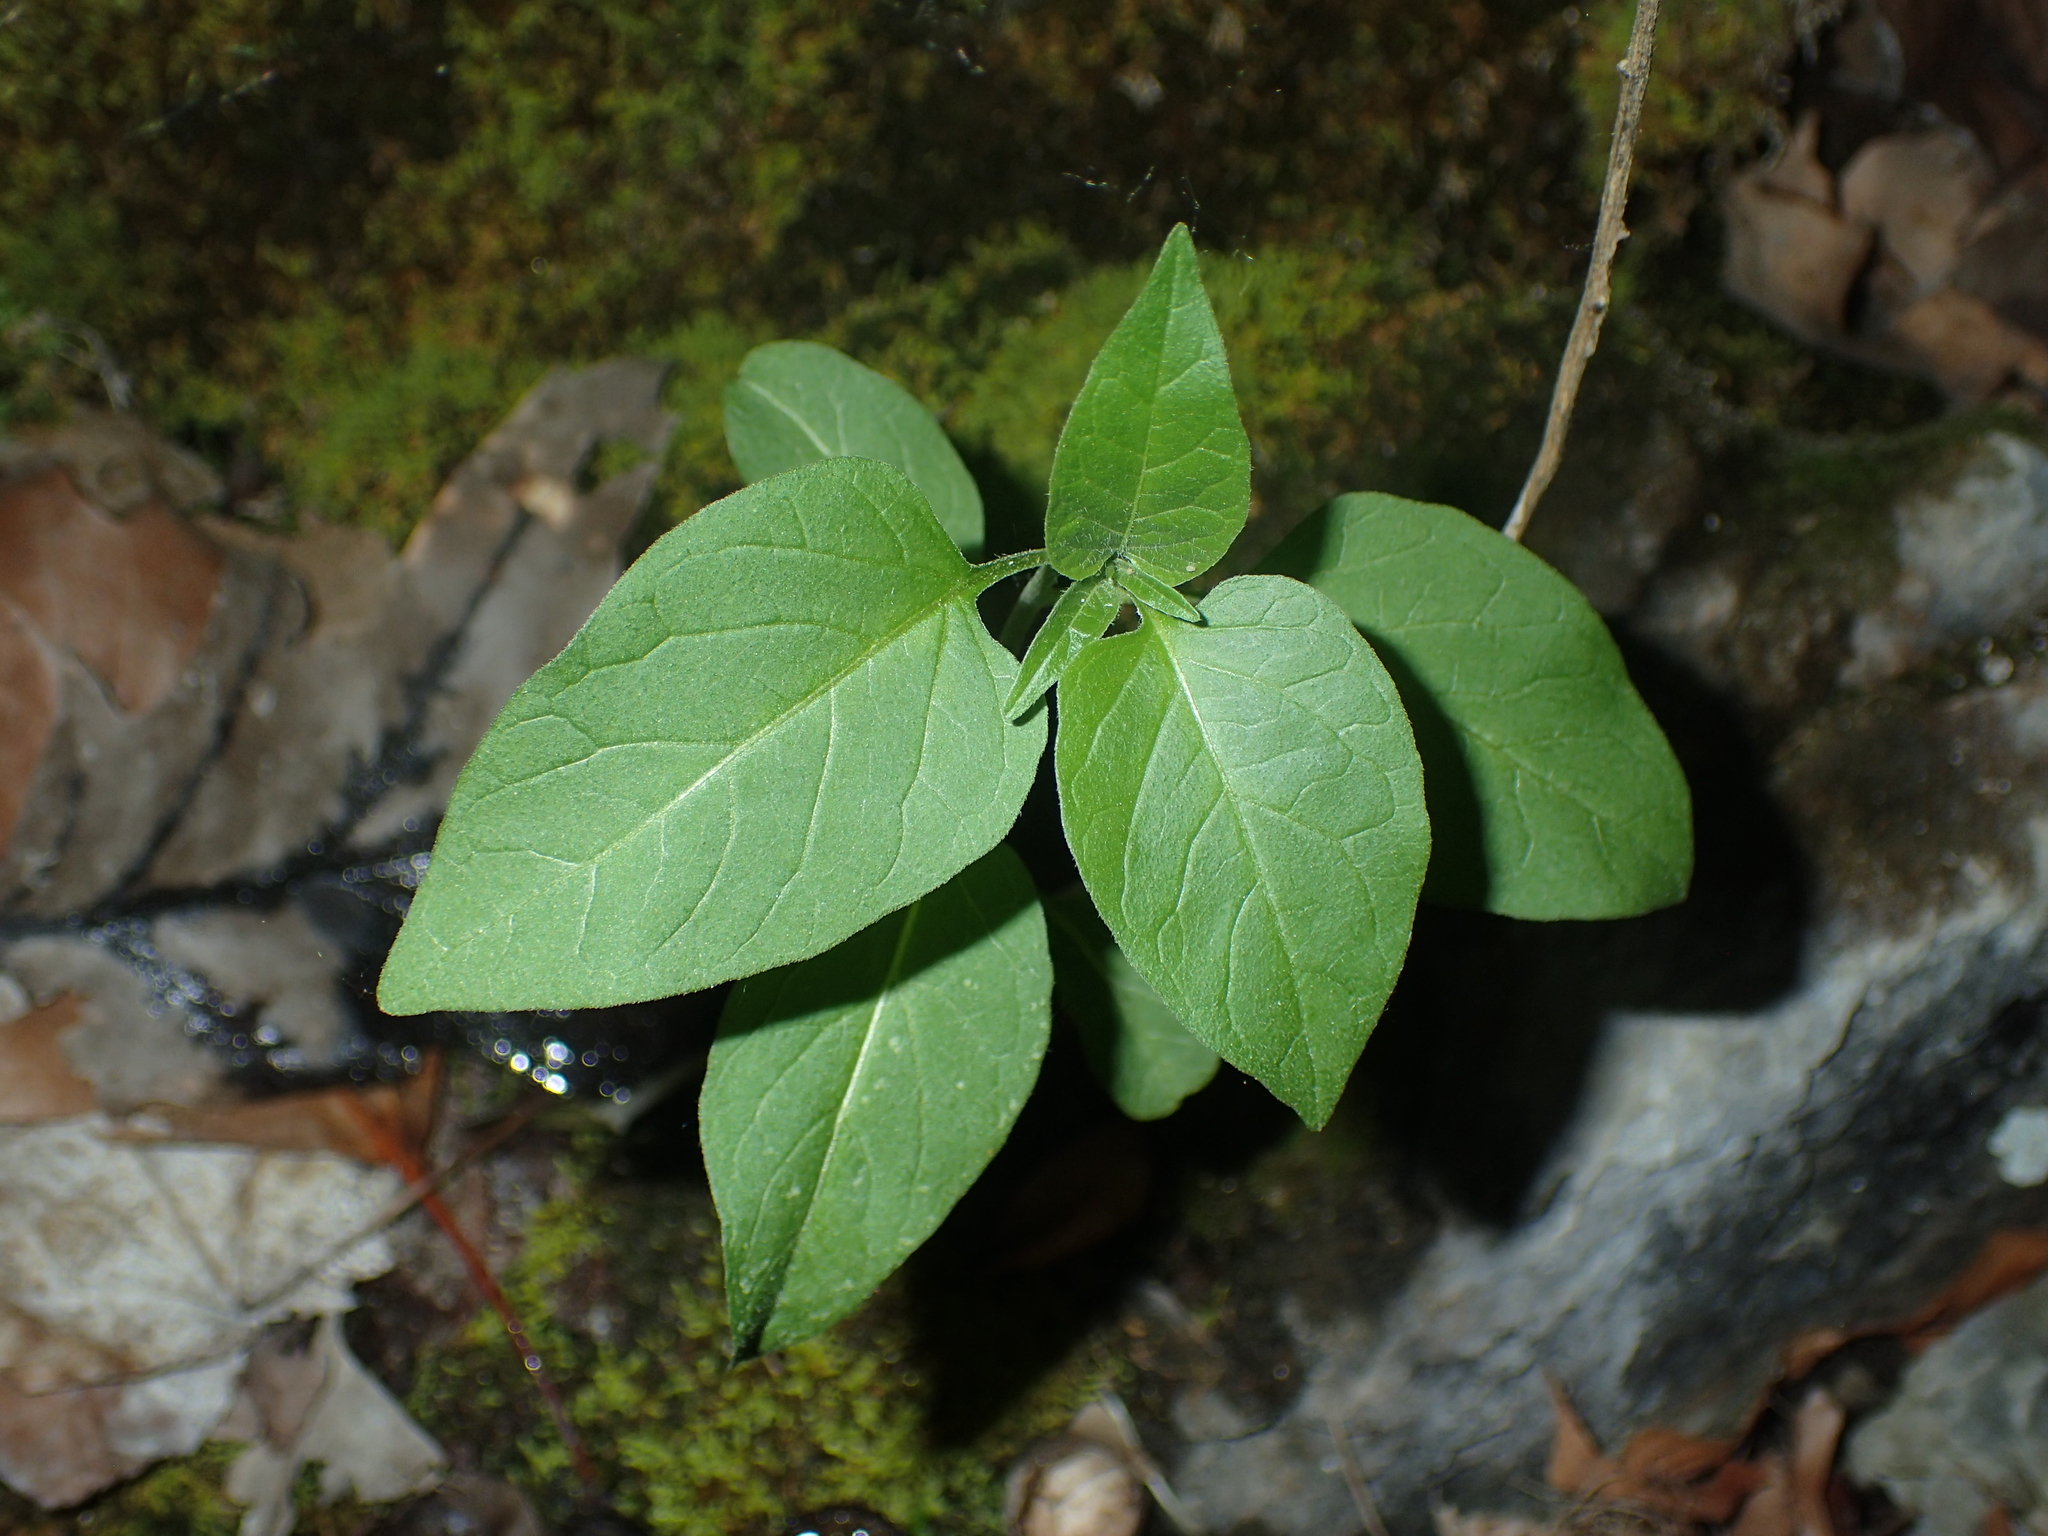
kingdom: Plantae
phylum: Tracheophyta
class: Magnoliopsida
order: Solanales
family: Solanaceae
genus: Solanum
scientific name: Solanum dulcamara
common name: Climbing nightshade
